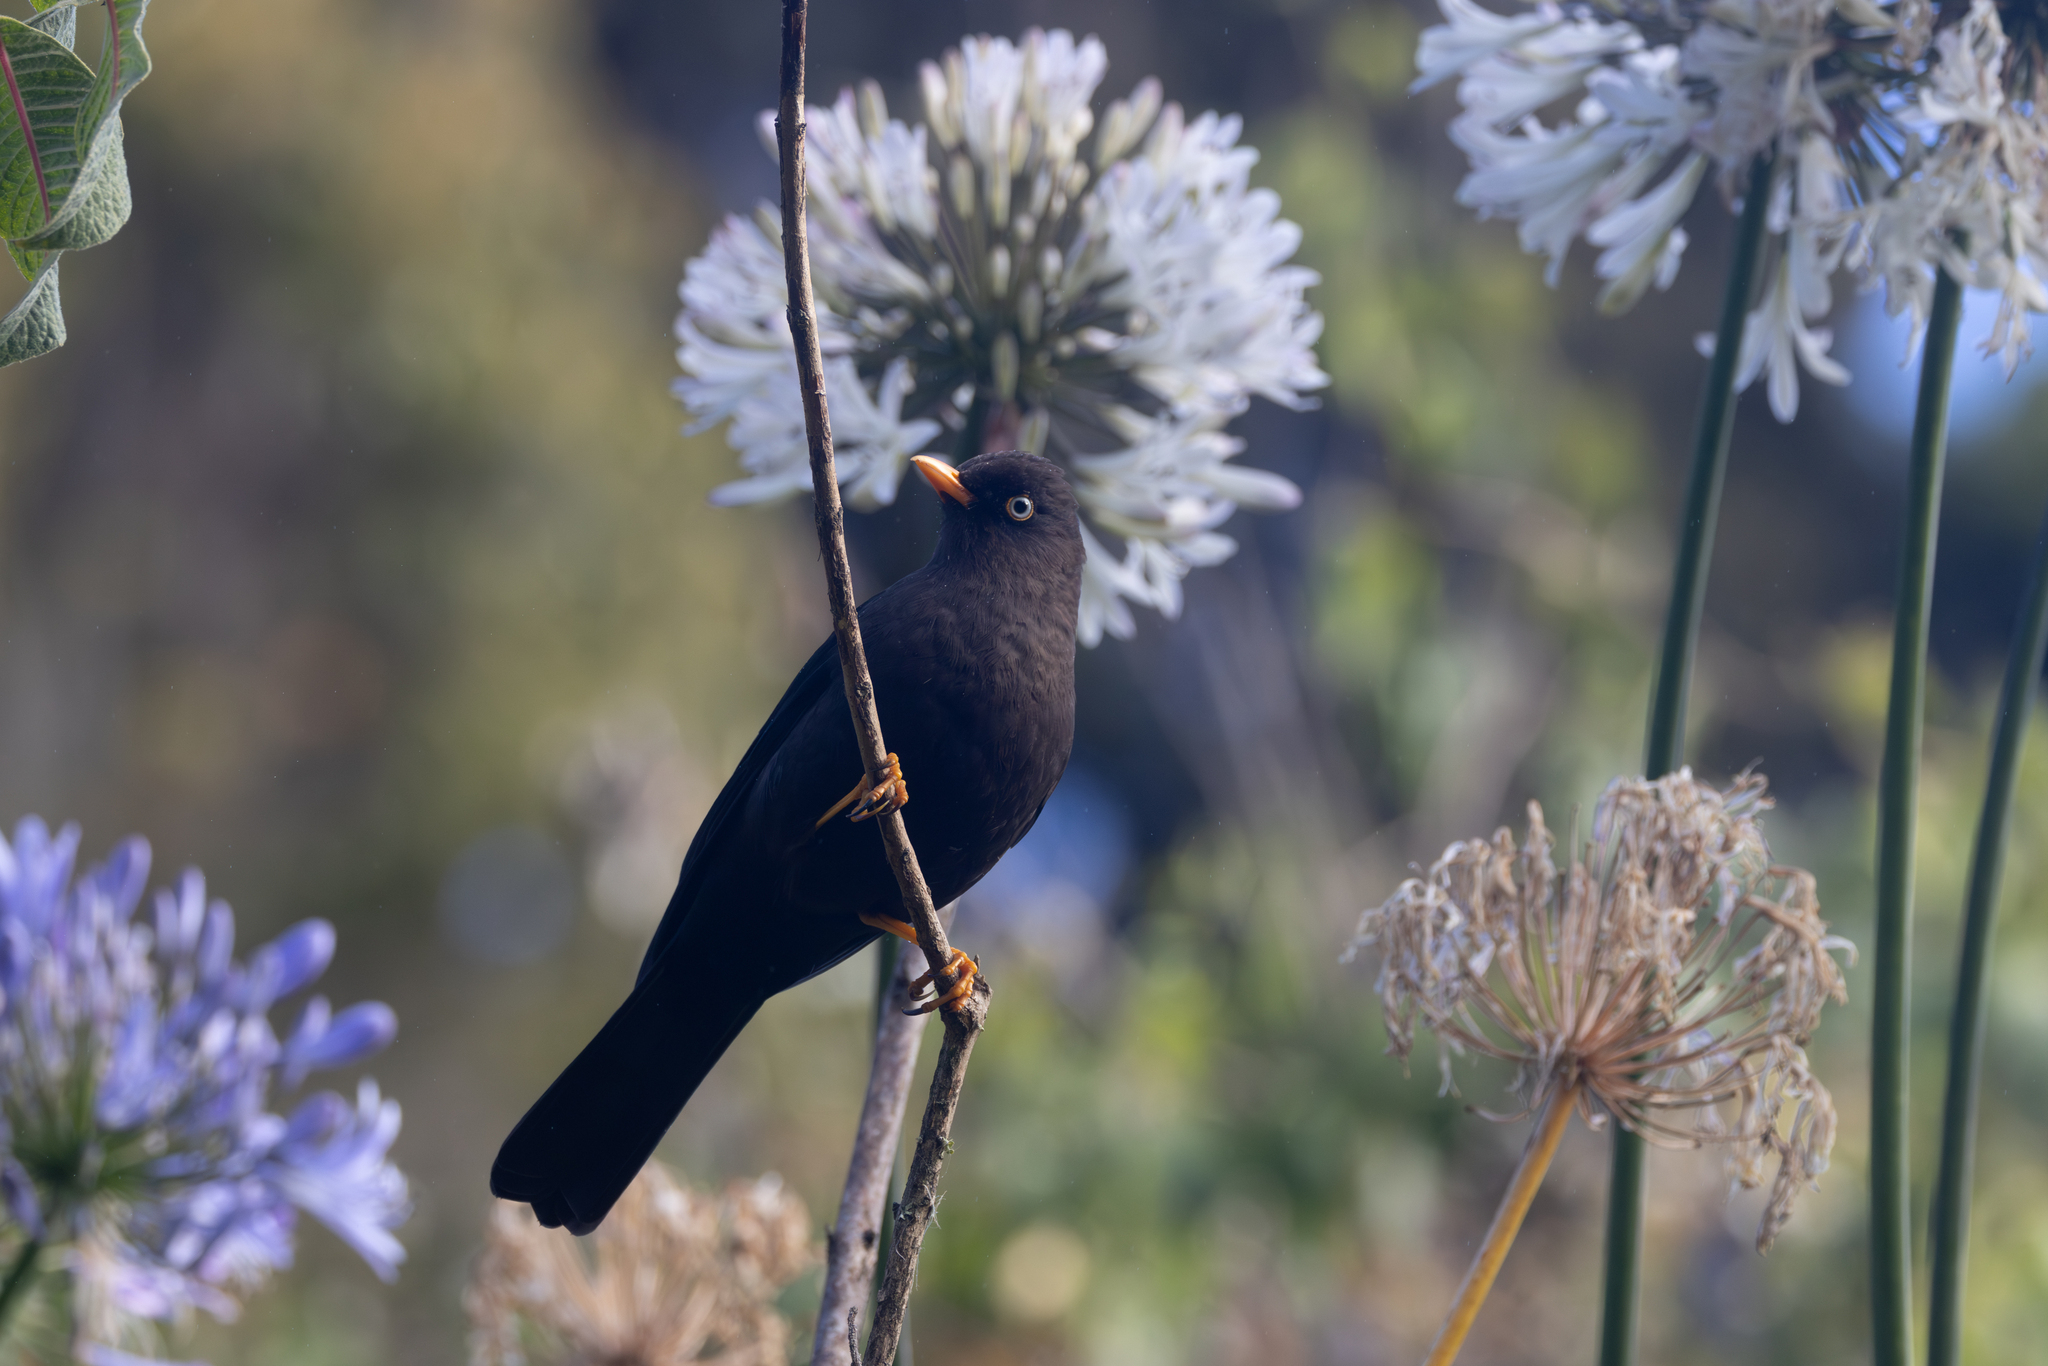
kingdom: Animalia
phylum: Chordata
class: Aves
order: Passeriformes
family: Turdidae
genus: Turdus
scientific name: Turdus nigrescens
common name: Sooty thrush
